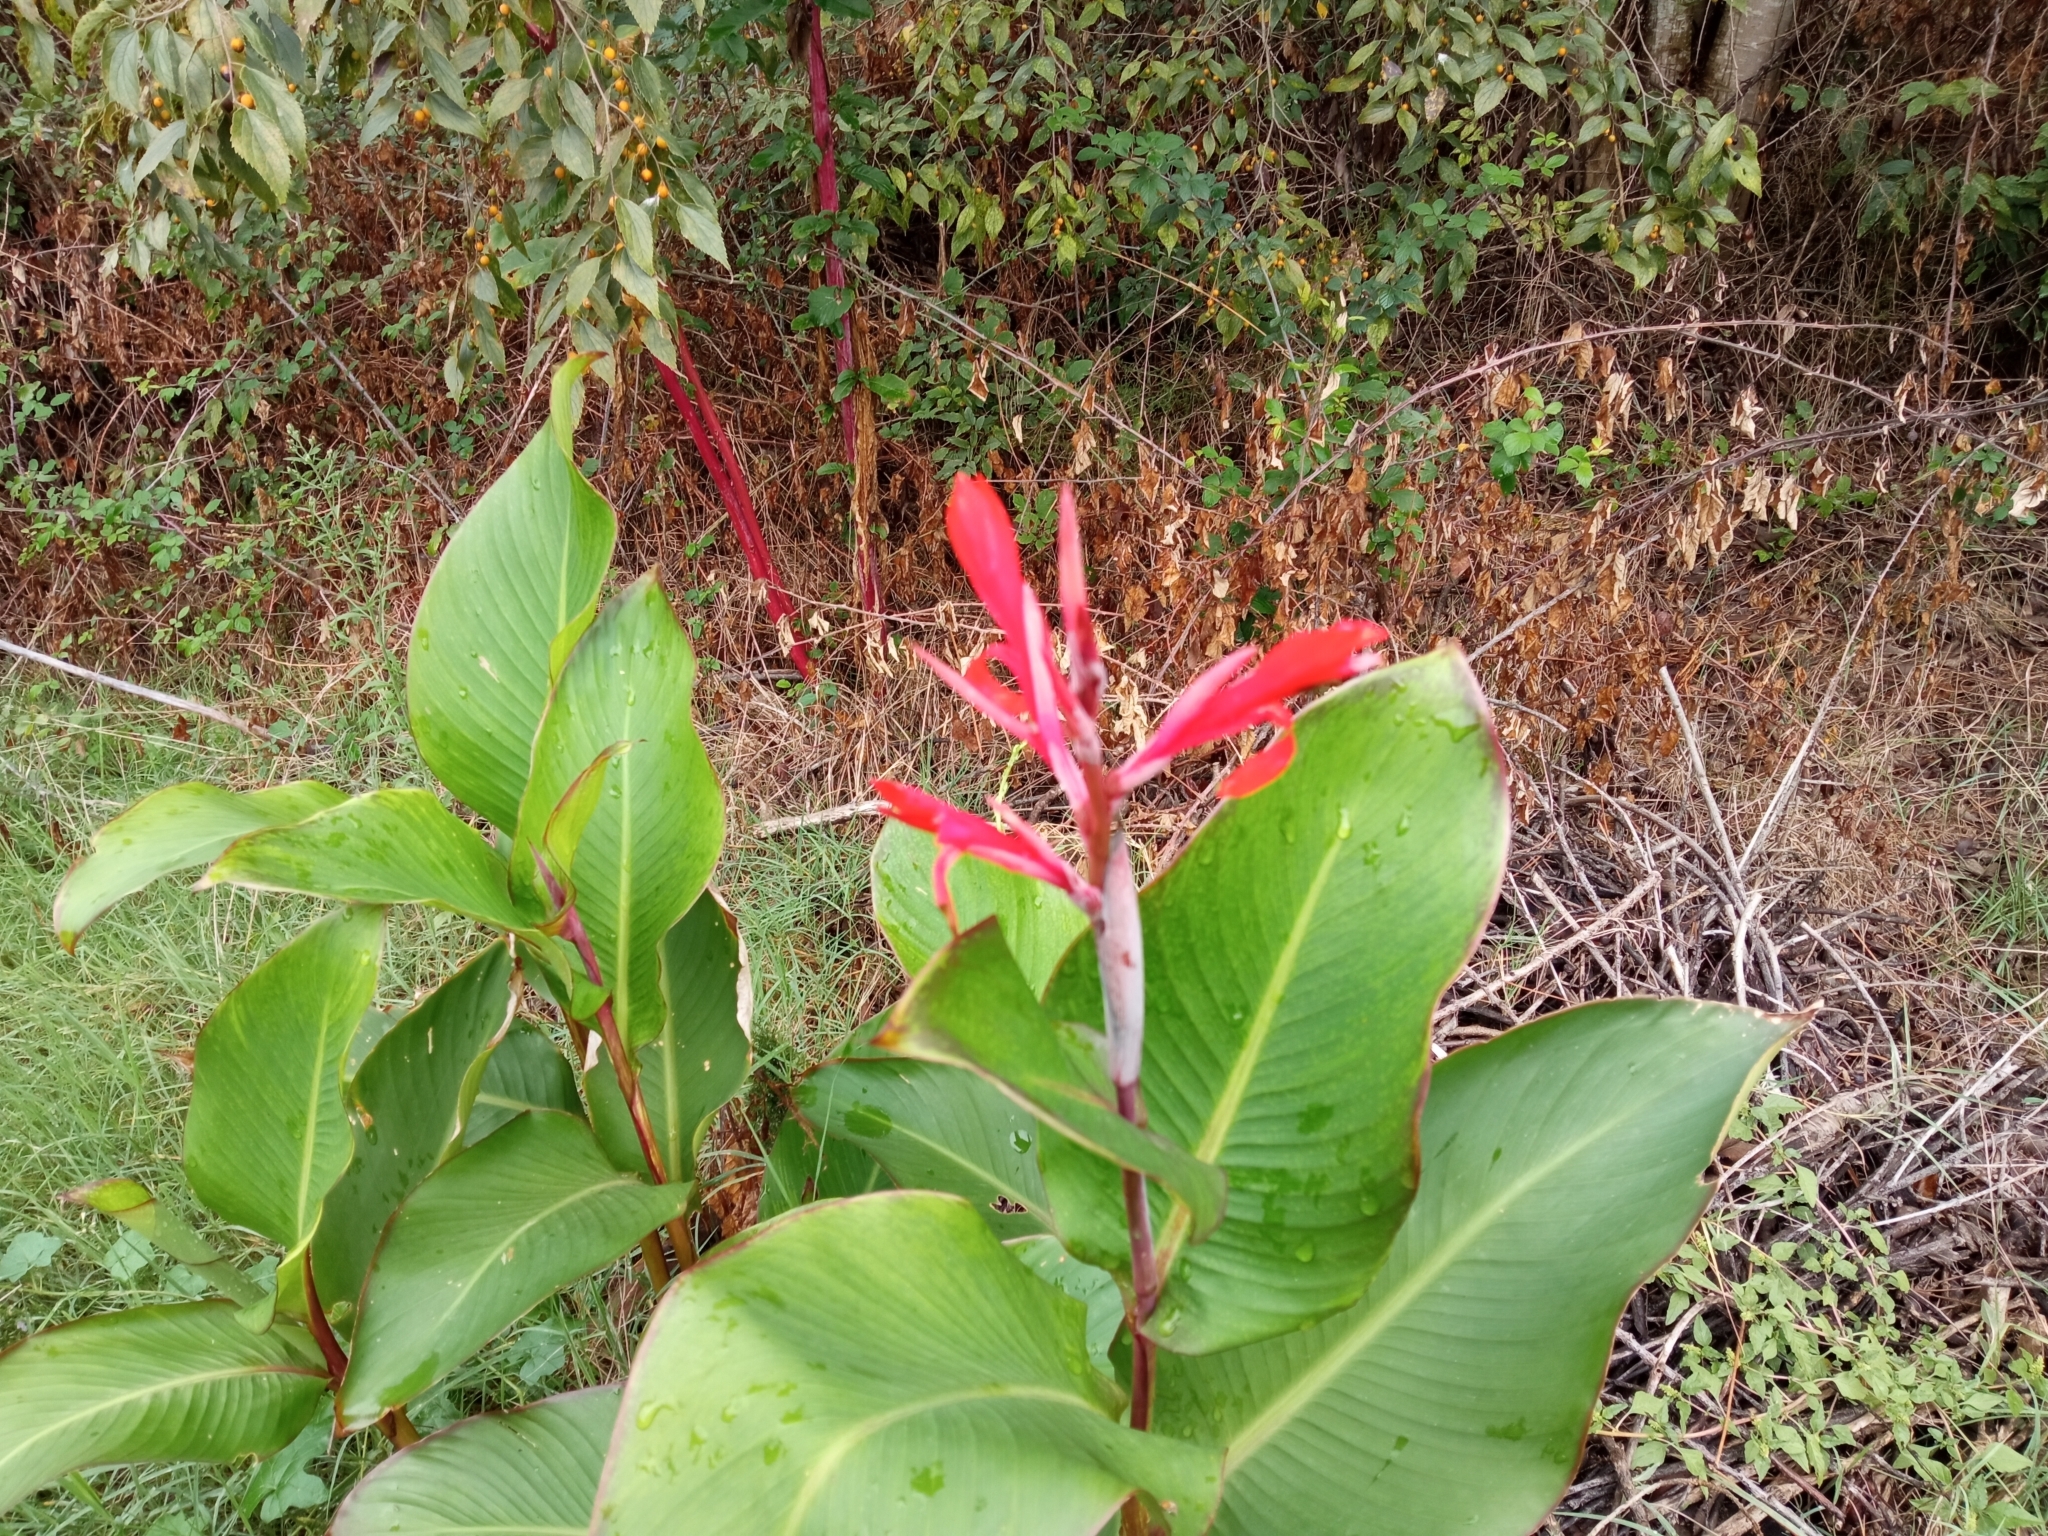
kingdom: Plantae
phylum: Tracheophyta
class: Liliopsida
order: Zingiberales
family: Cannaceae
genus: Canna
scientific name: Canna indica
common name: Indian shot
